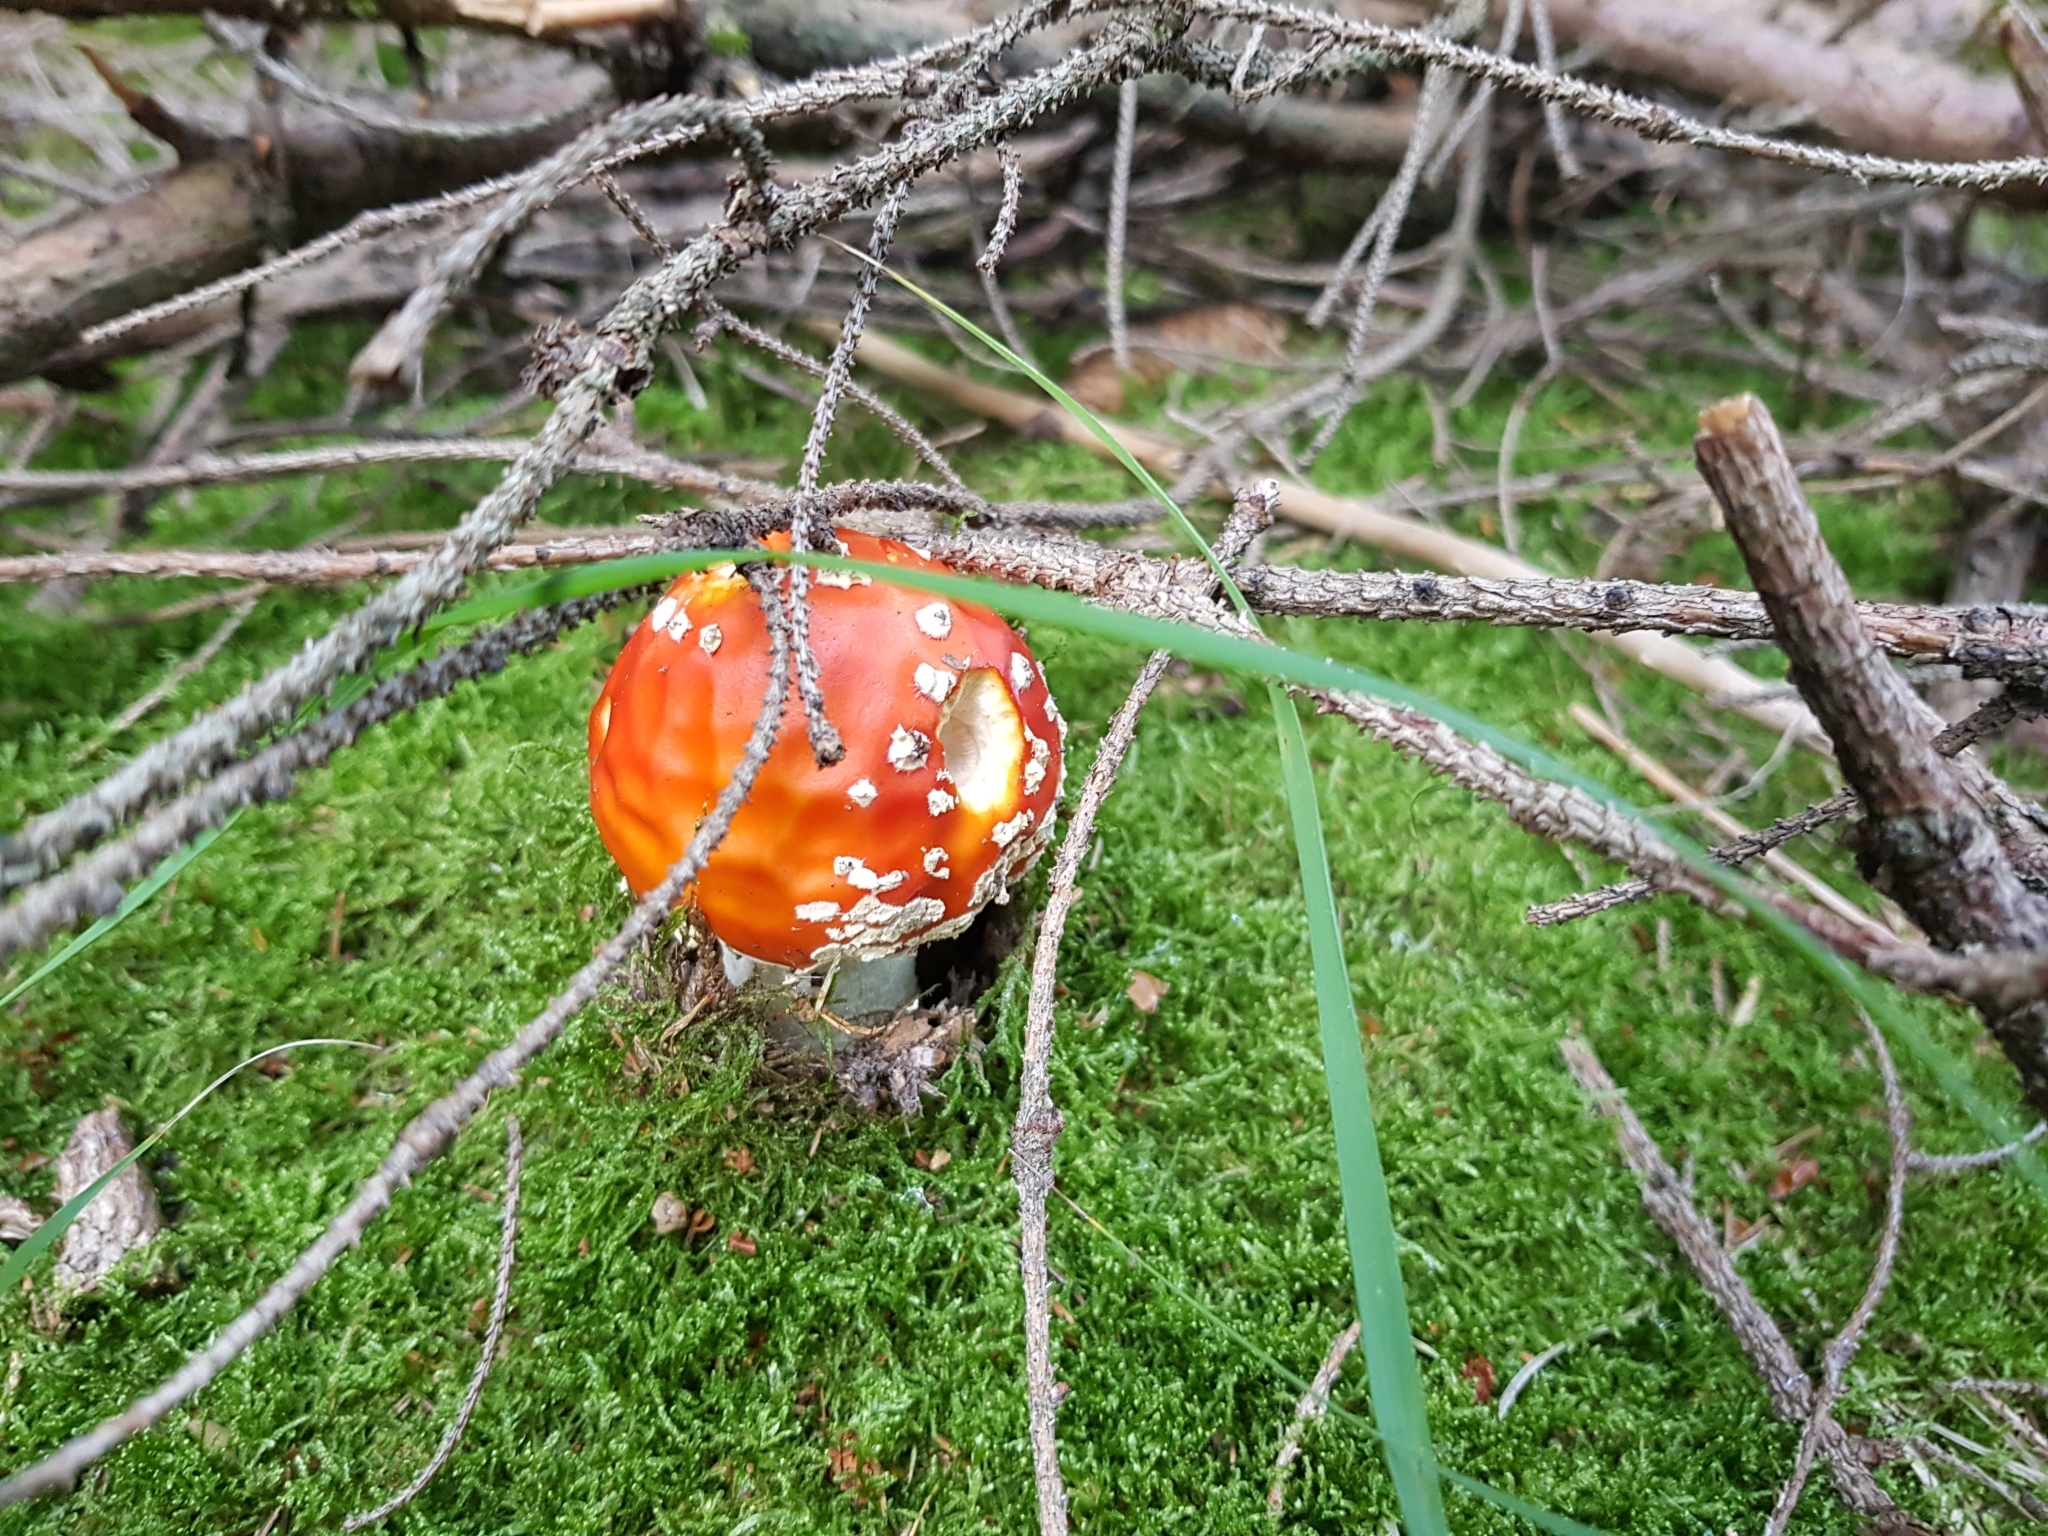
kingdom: Fungi
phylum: Basidiomycota
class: Agaricomycetes
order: Agaricales
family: Amanitaceae
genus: Amanita
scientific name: Amanita muscaria
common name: Fly agaric
